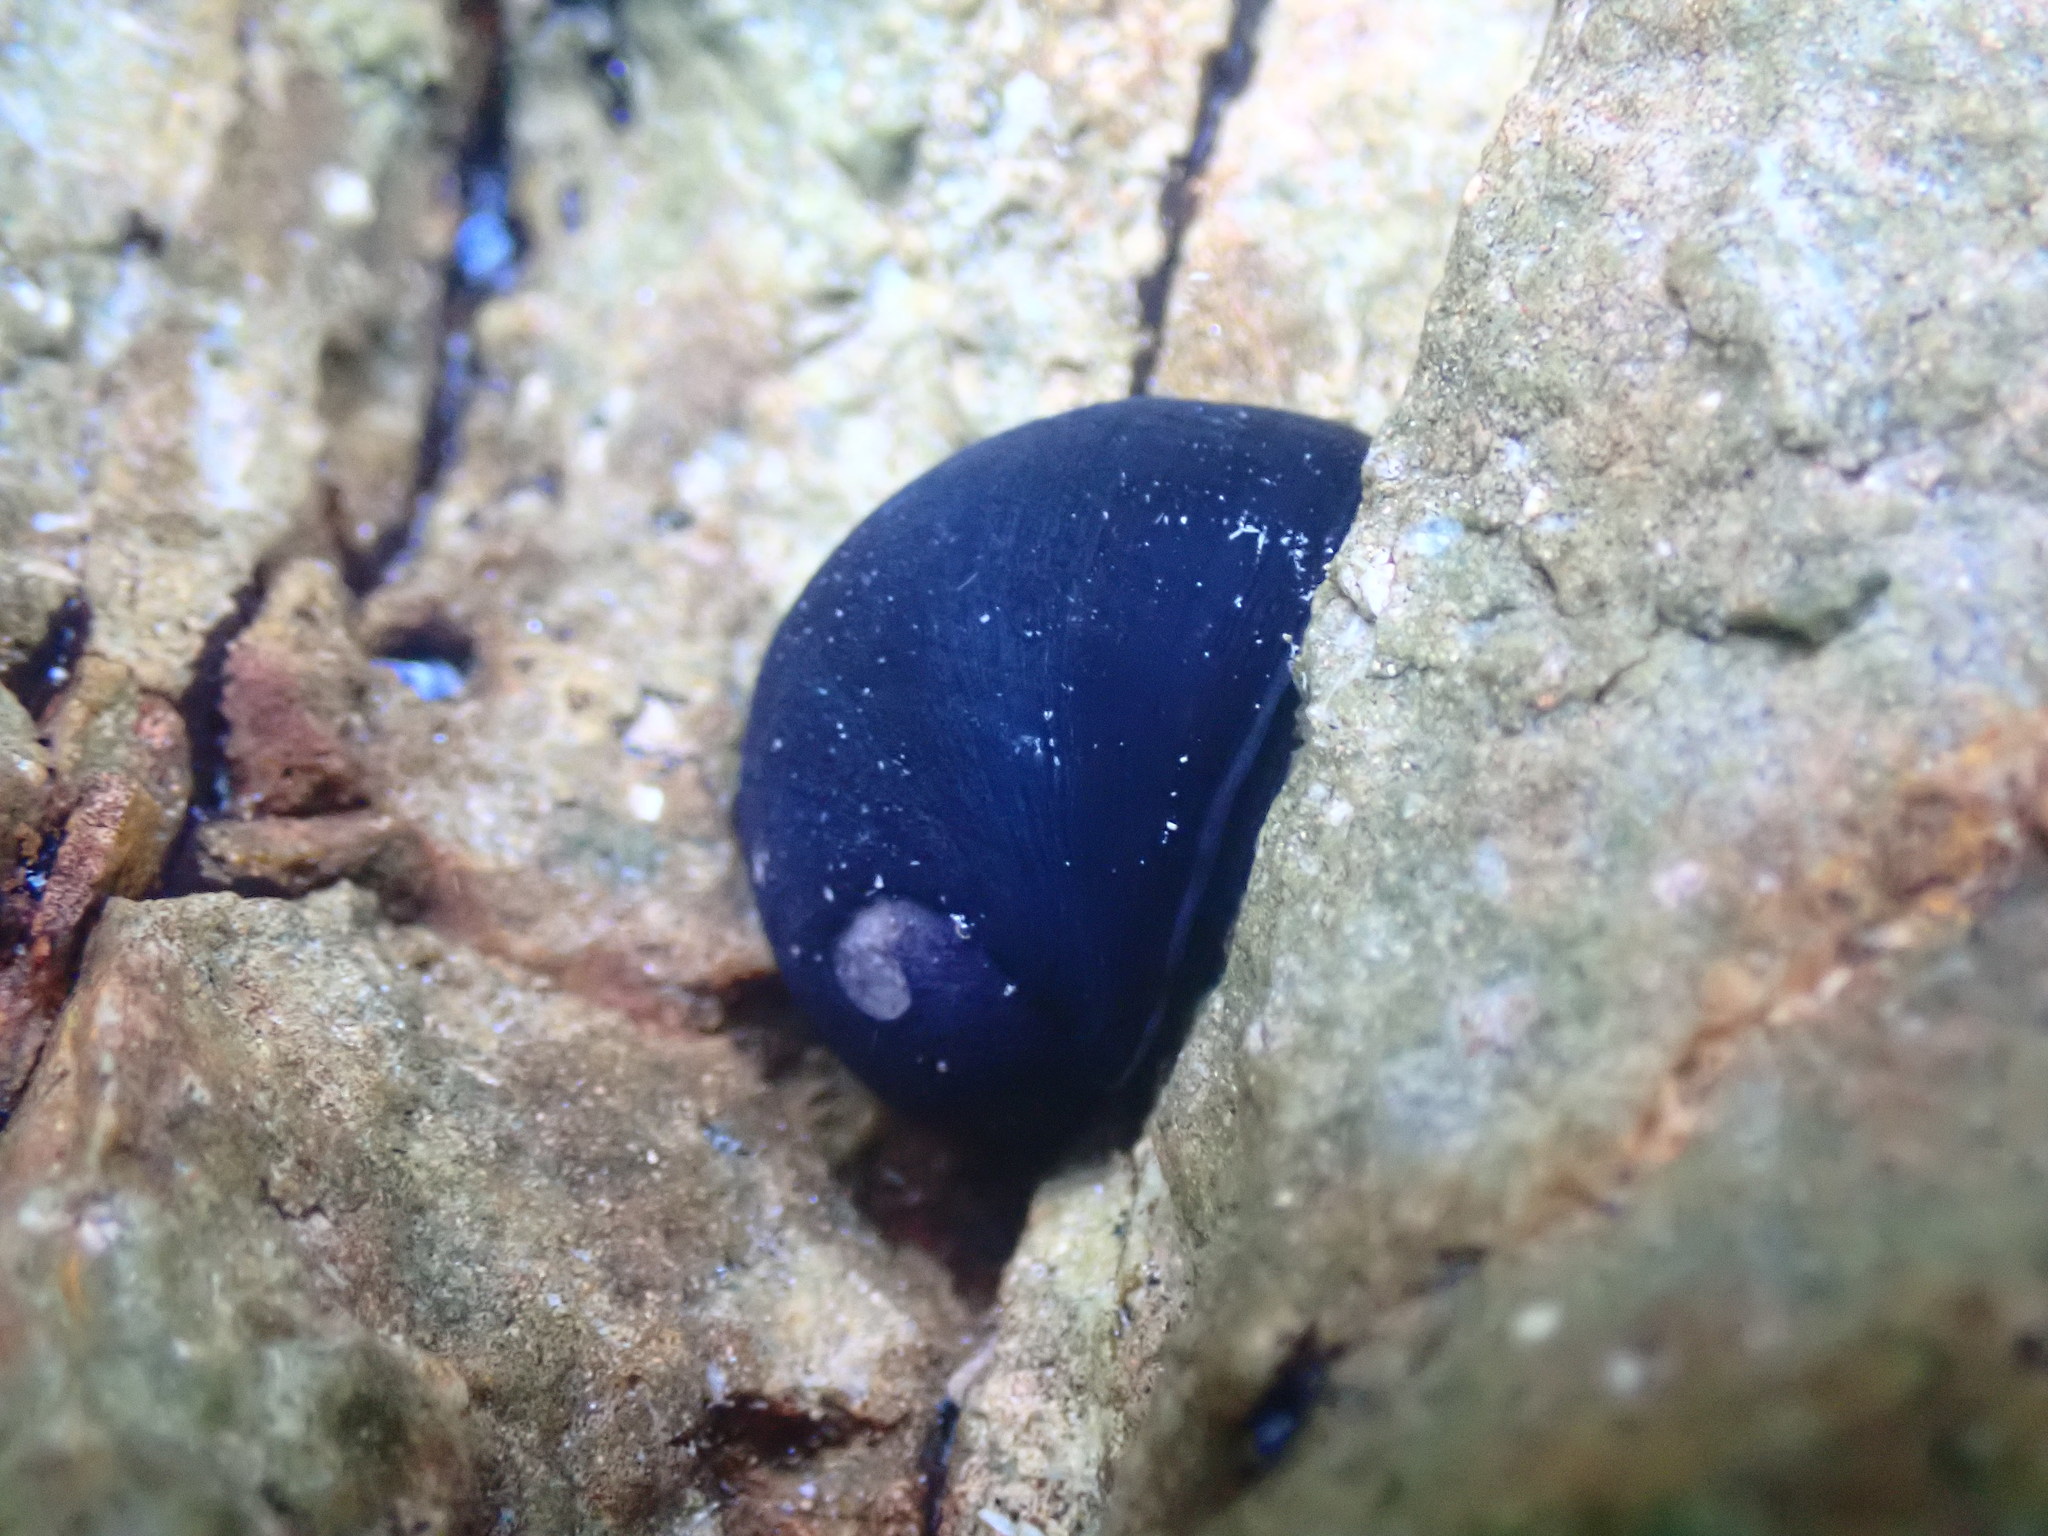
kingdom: Animalia
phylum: Mollusca
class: Gastropoda
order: Cycloneritida
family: Neritidae
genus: Nerita
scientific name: Nerita melanotragus
